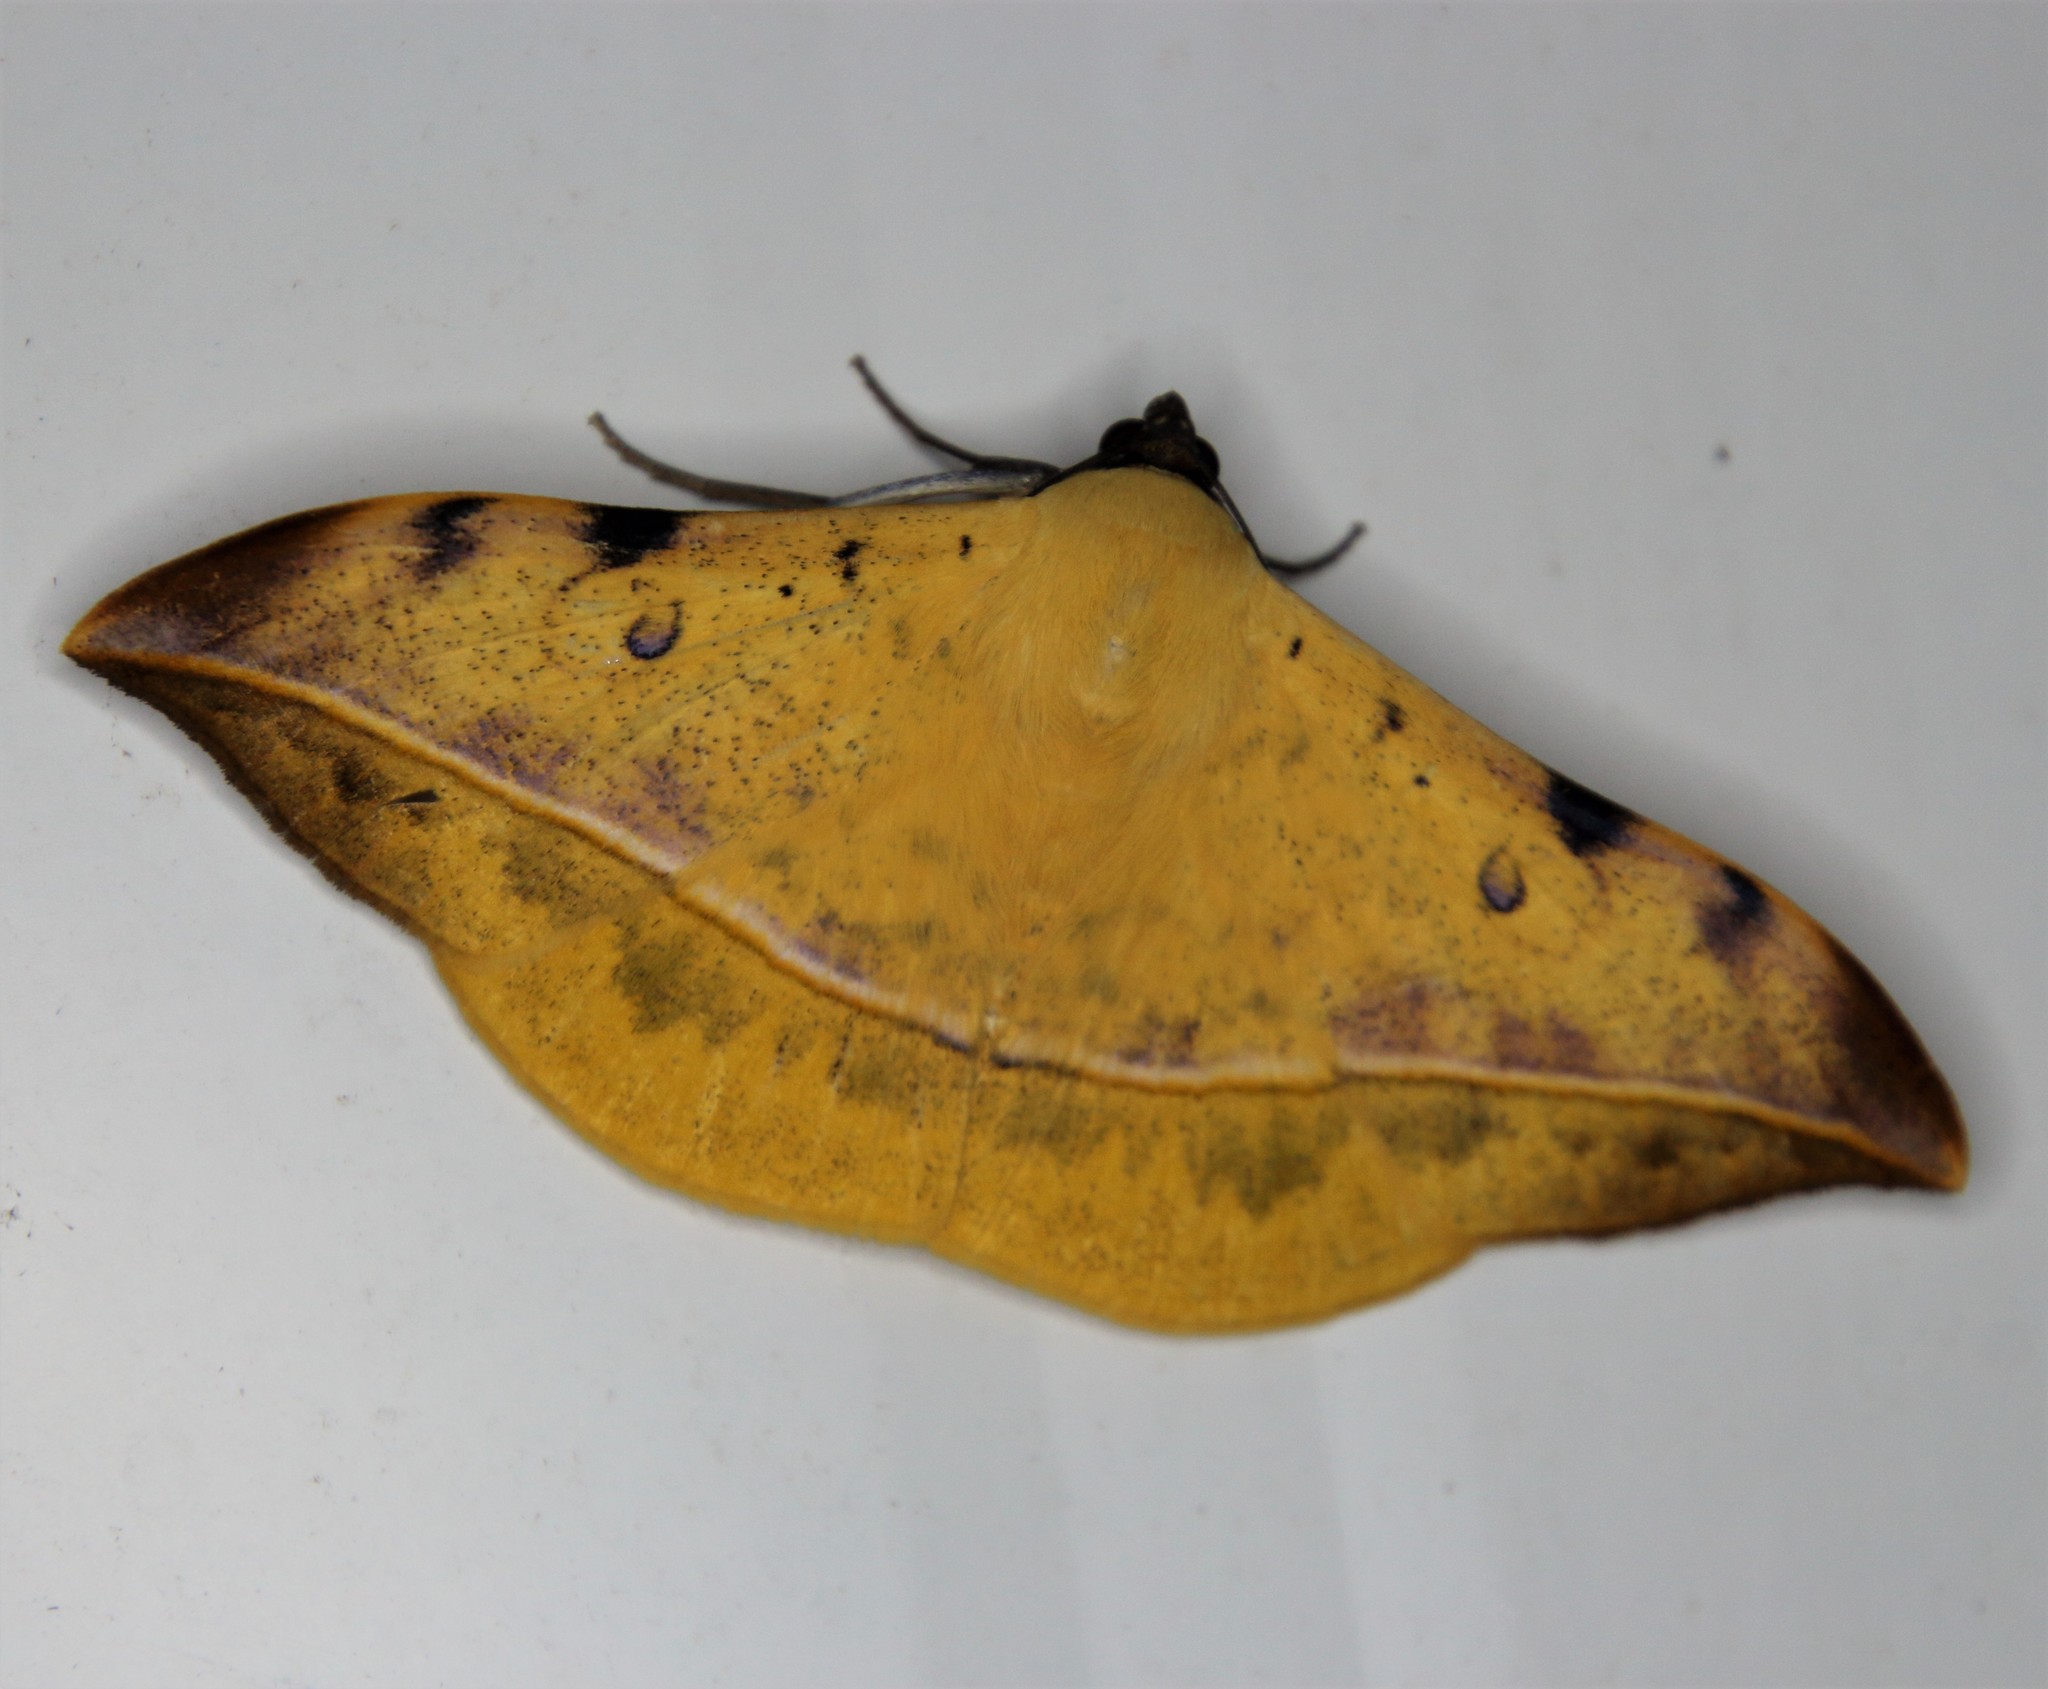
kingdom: Animalia
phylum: Arthropoda
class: Insecta
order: Lepidoptera
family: Erebidae
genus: Hamodes
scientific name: Hamodes propitia
